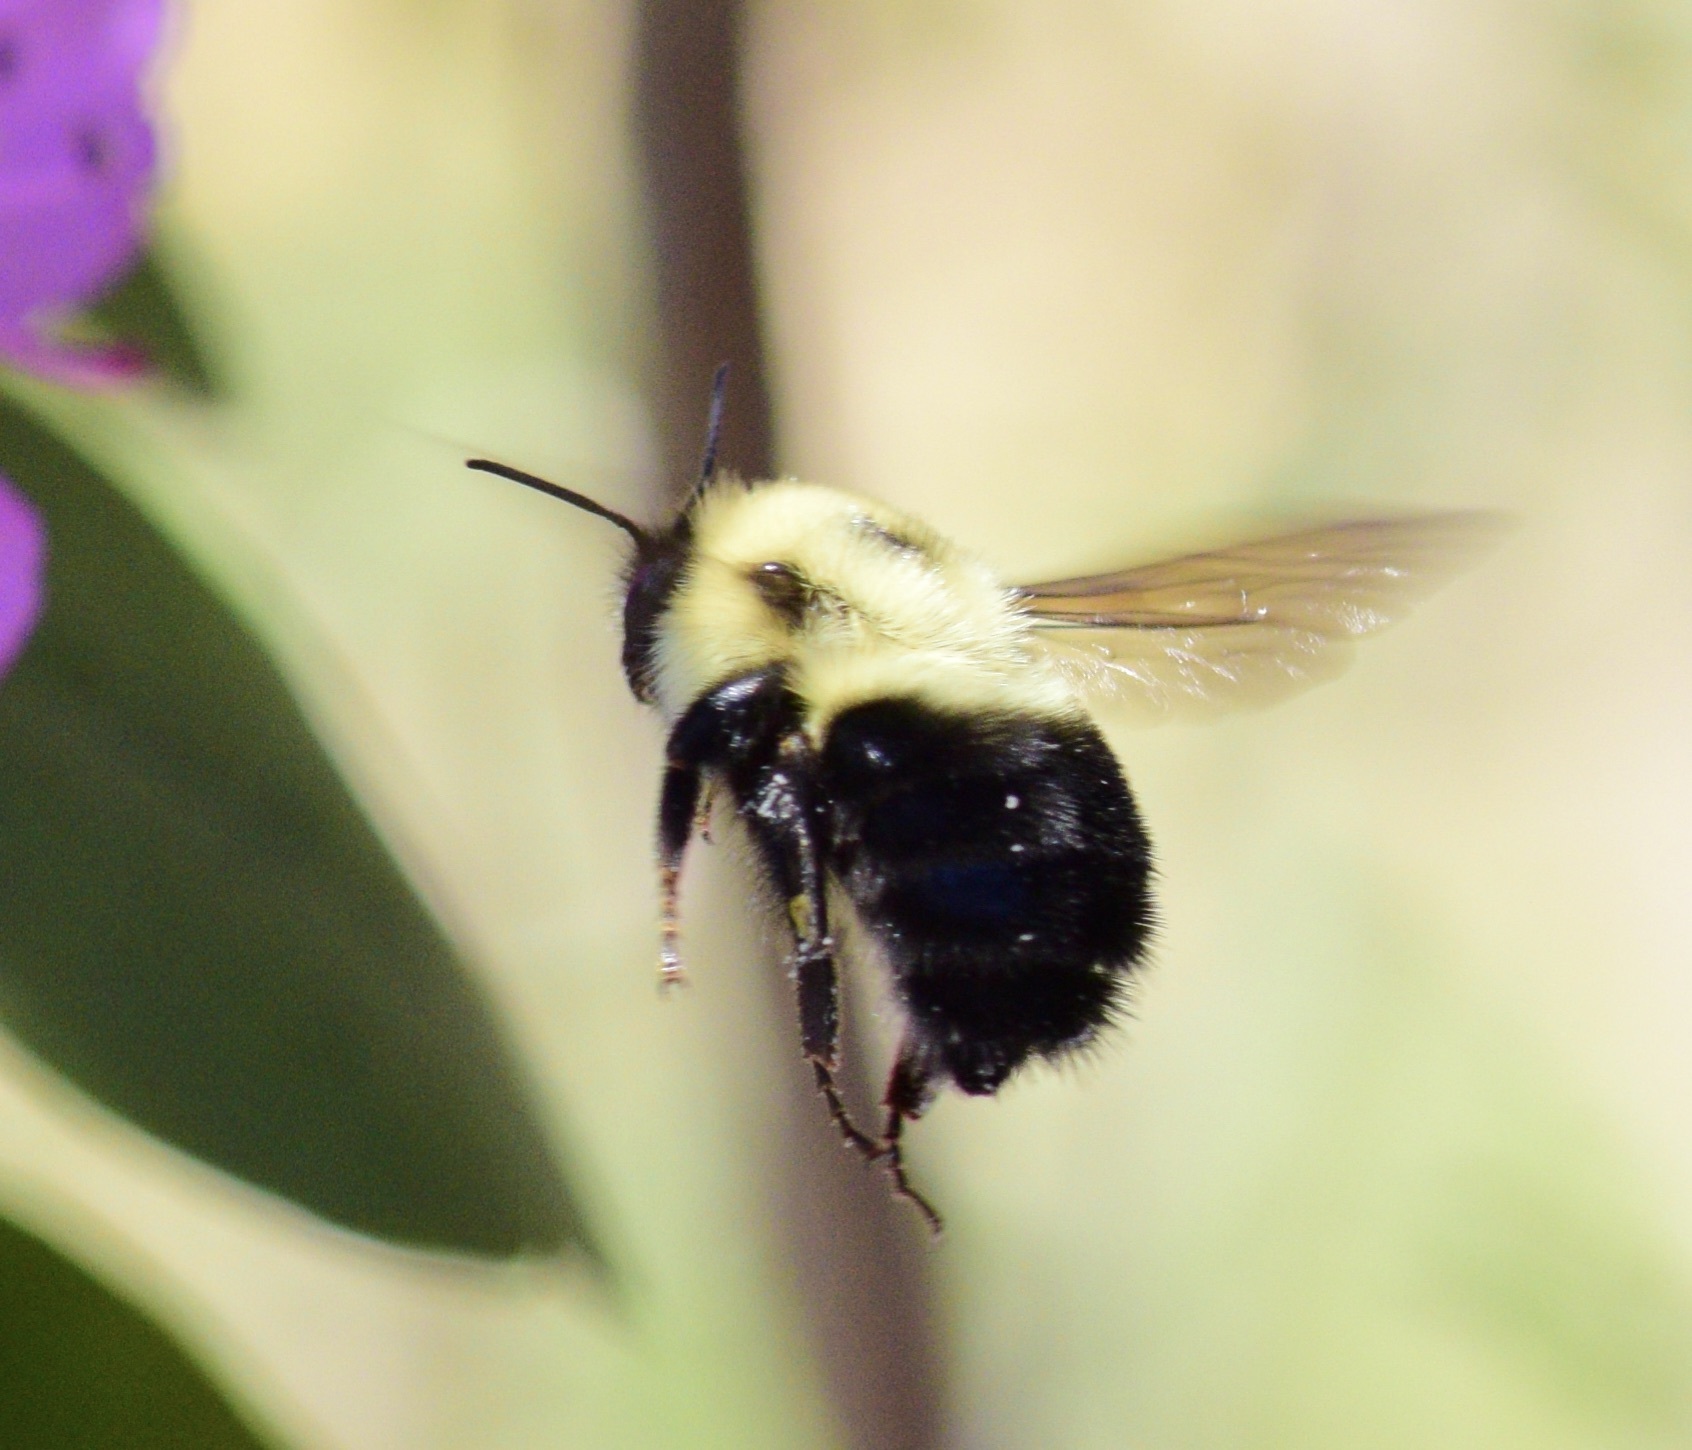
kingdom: Animalia
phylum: Arthropoda
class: Insecta
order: Hymenoptera
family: Apidae
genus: Bombus
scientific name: Bombus bimaculatus
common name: Two-spotted bumble bee
